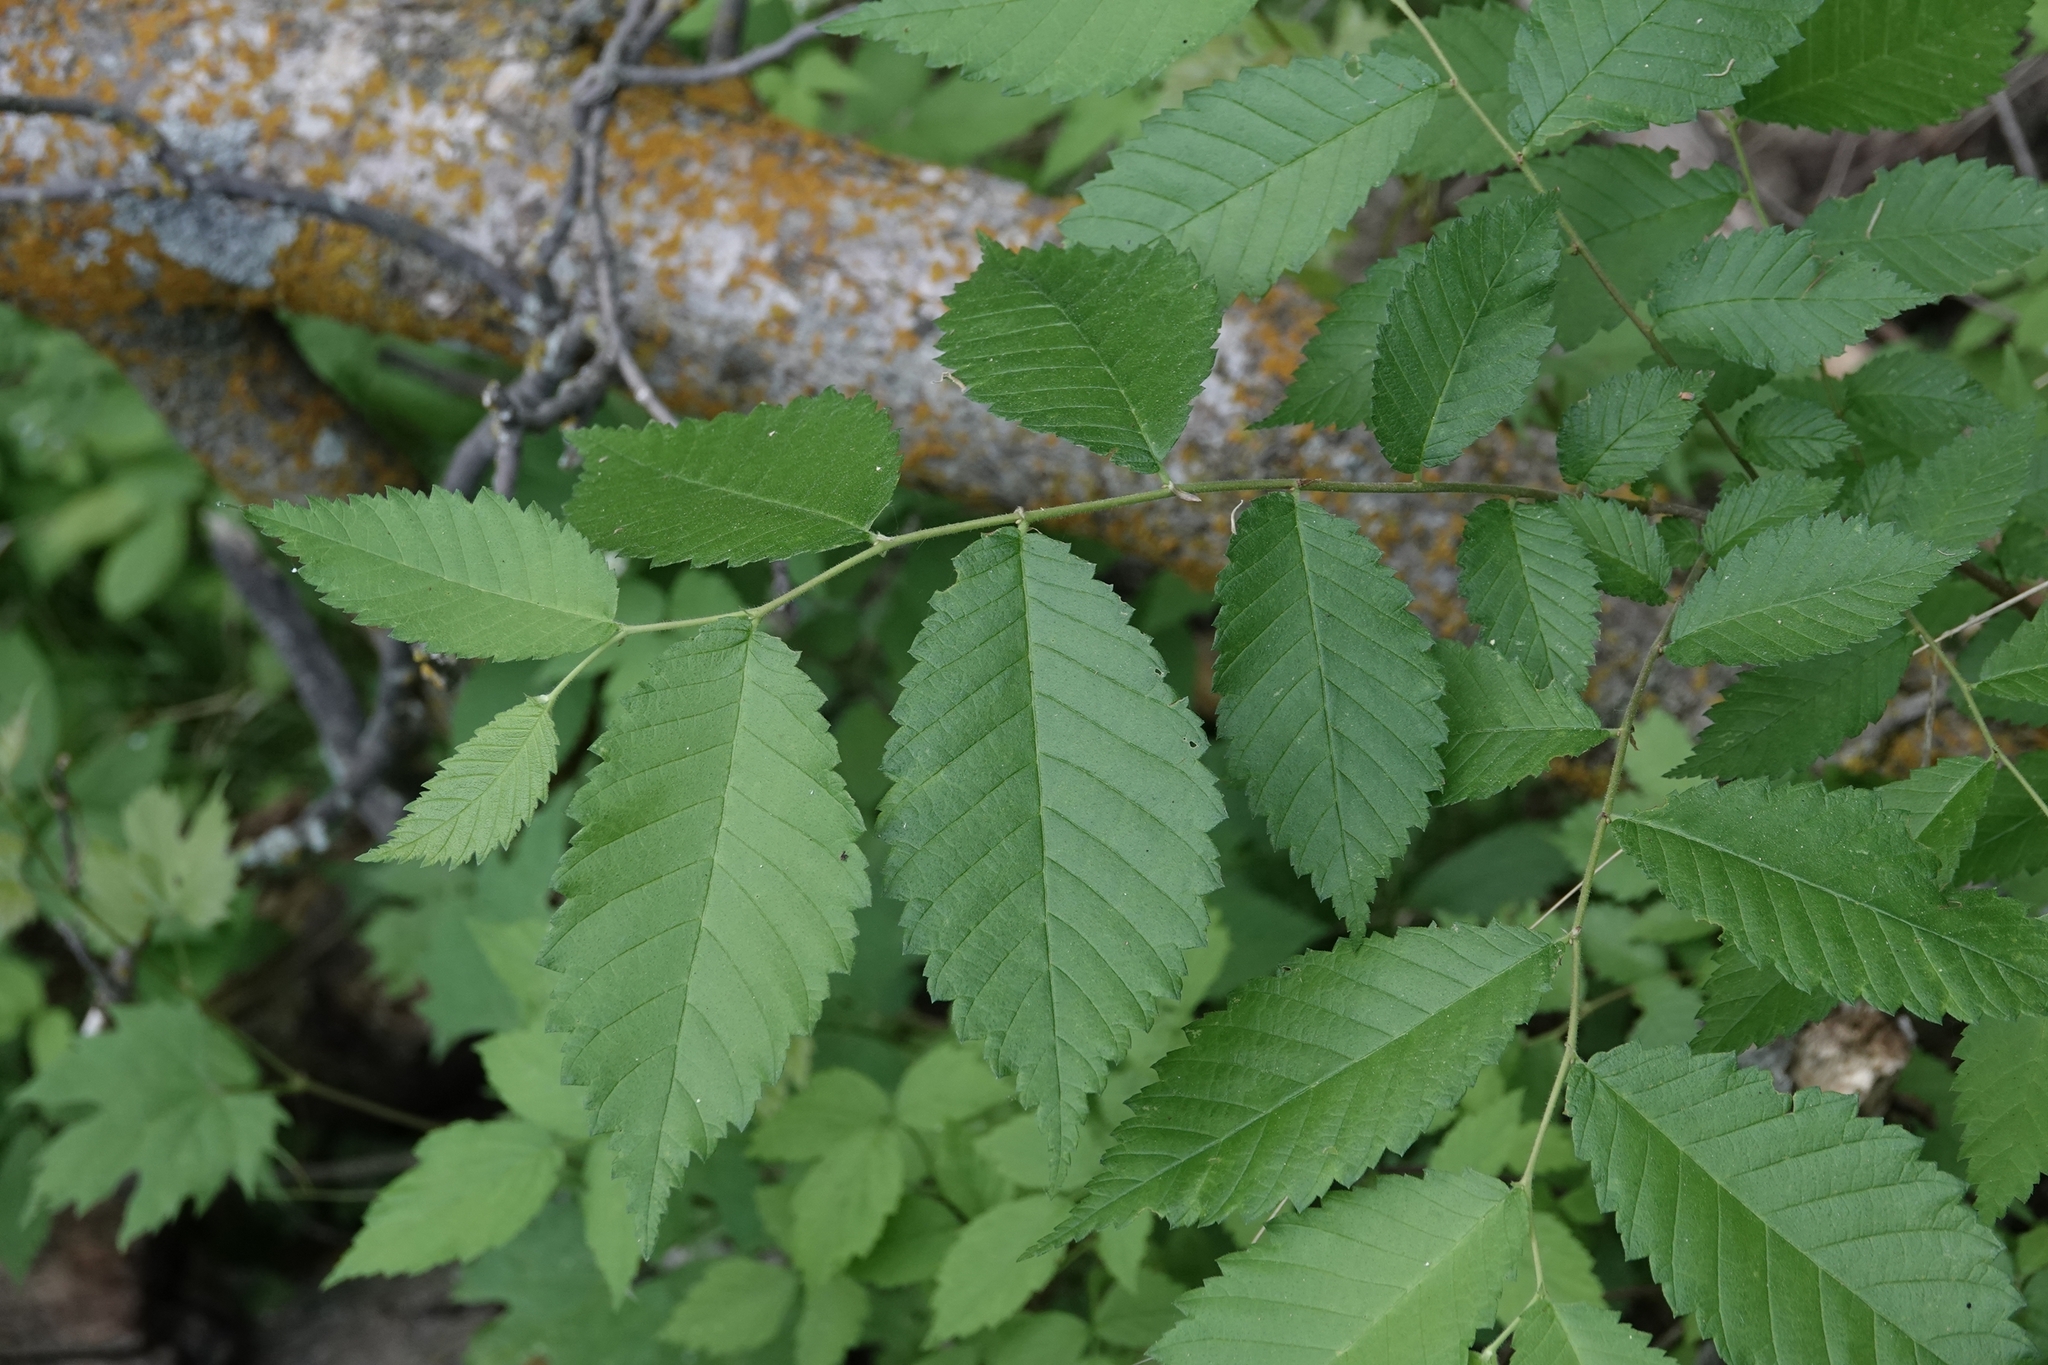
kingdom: Plantae
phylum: Tracheophyta
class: Magnoliopsida
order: Rosales
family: Ulmaceae
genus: Ulmus
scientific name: Ulmus americana
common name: American elm
